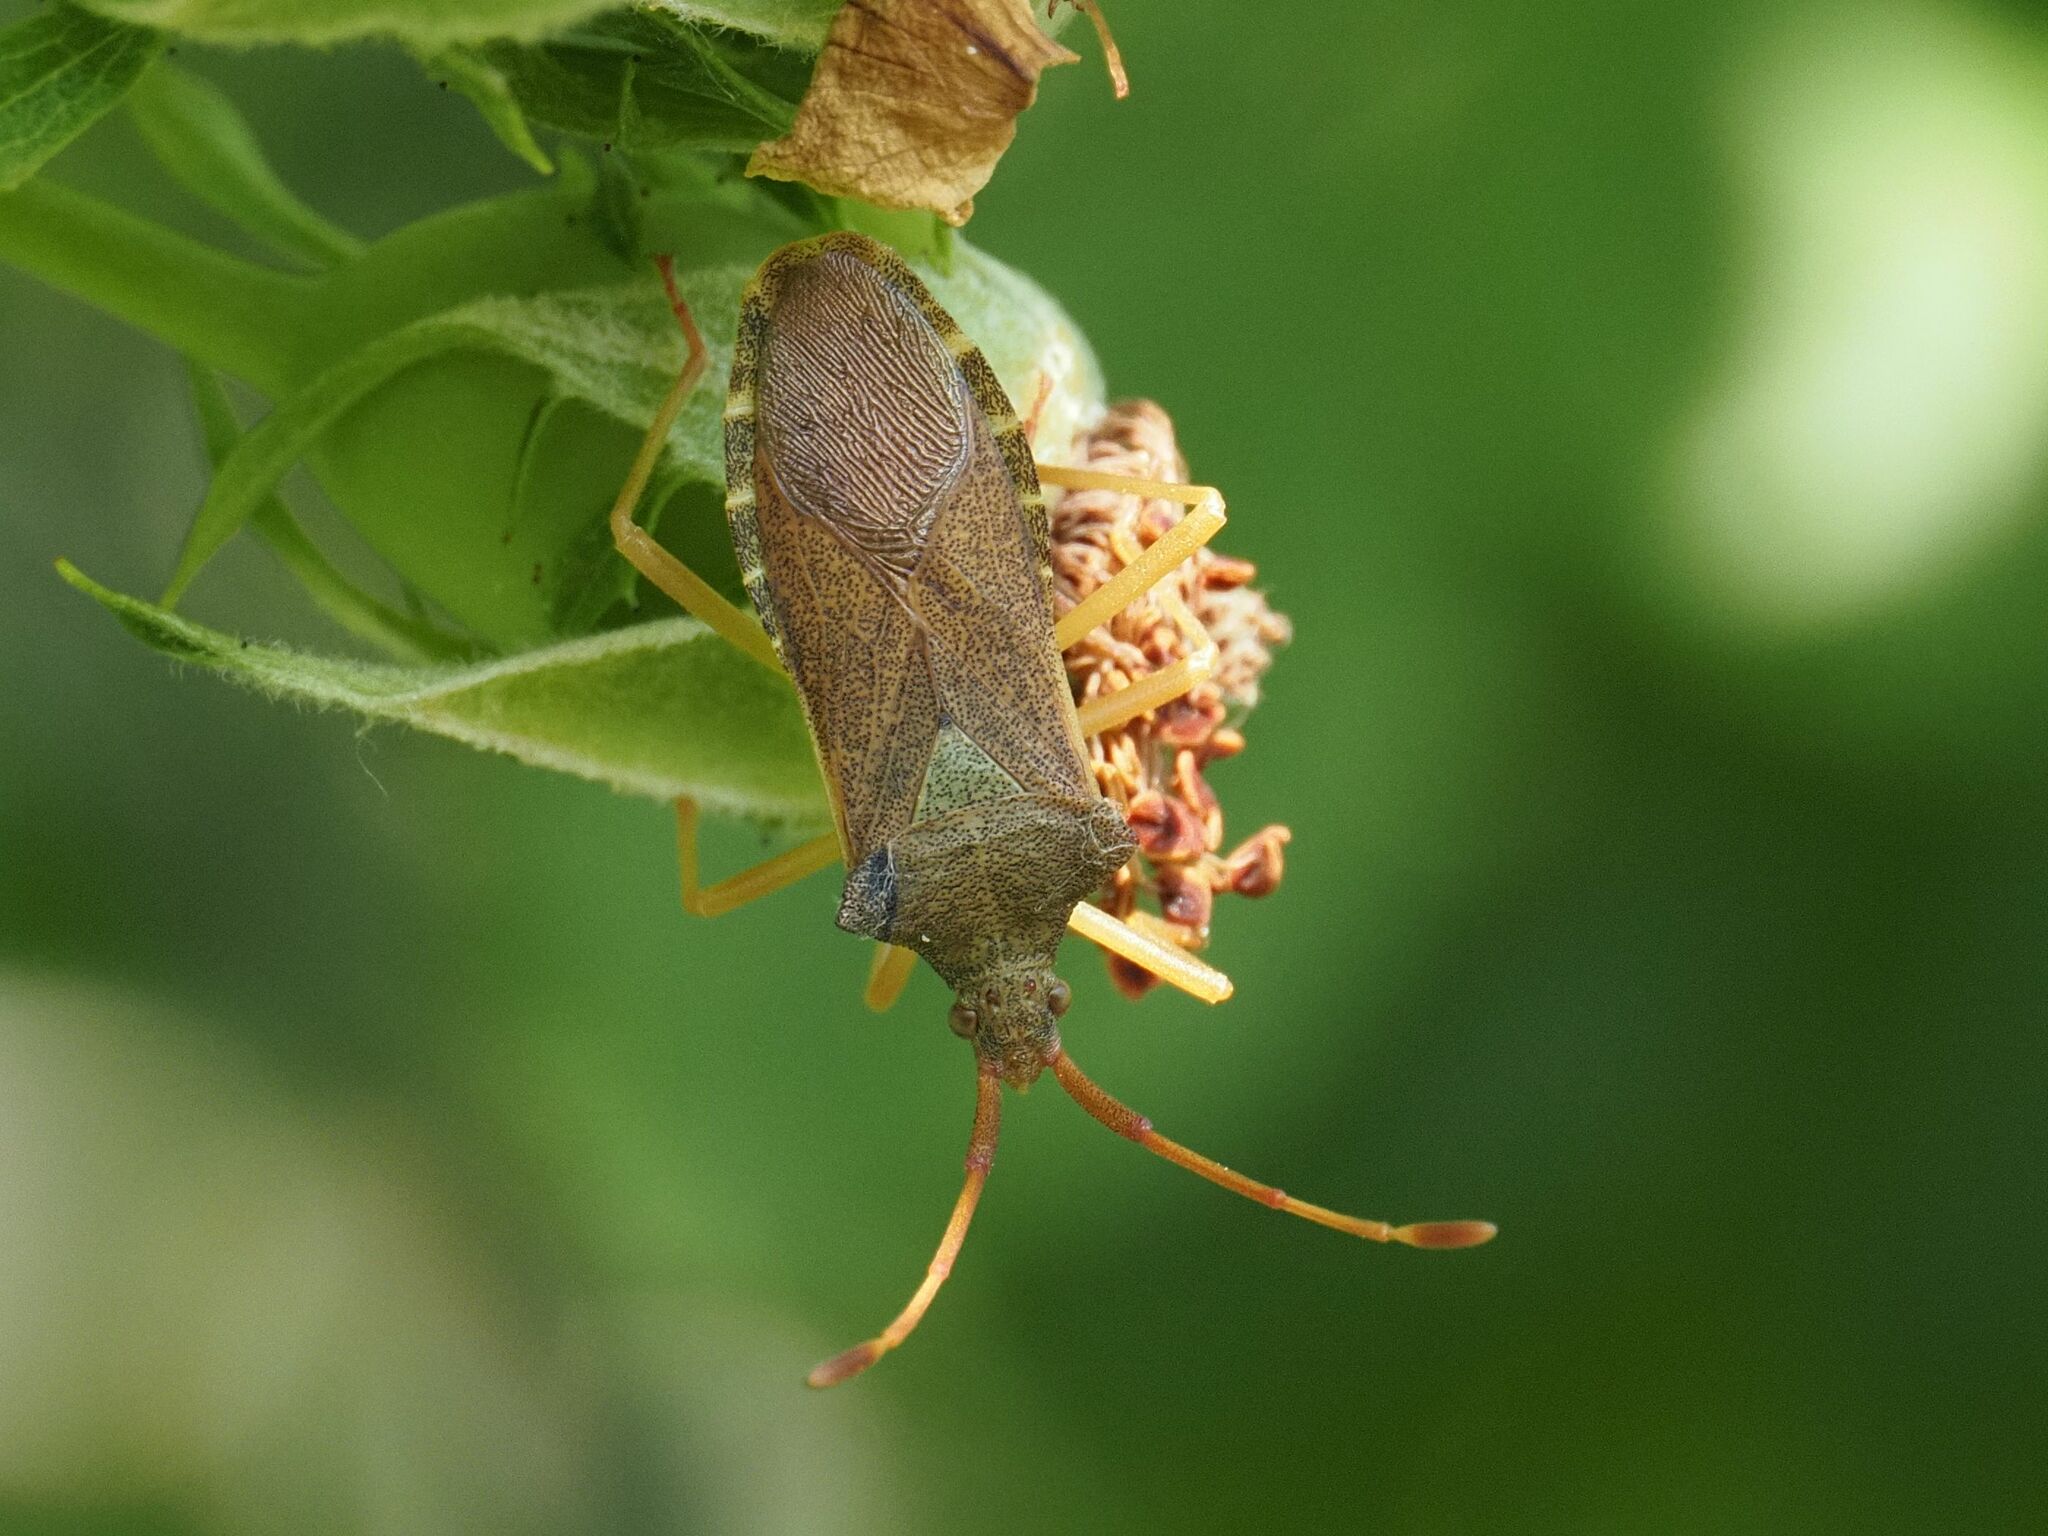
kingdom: Animalia
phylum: Arthropoda
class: Insecta
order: Hemiptera
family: Coreidae
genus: Gonocerus
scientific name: Gonocerus acuteangulatus
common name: Box bug
